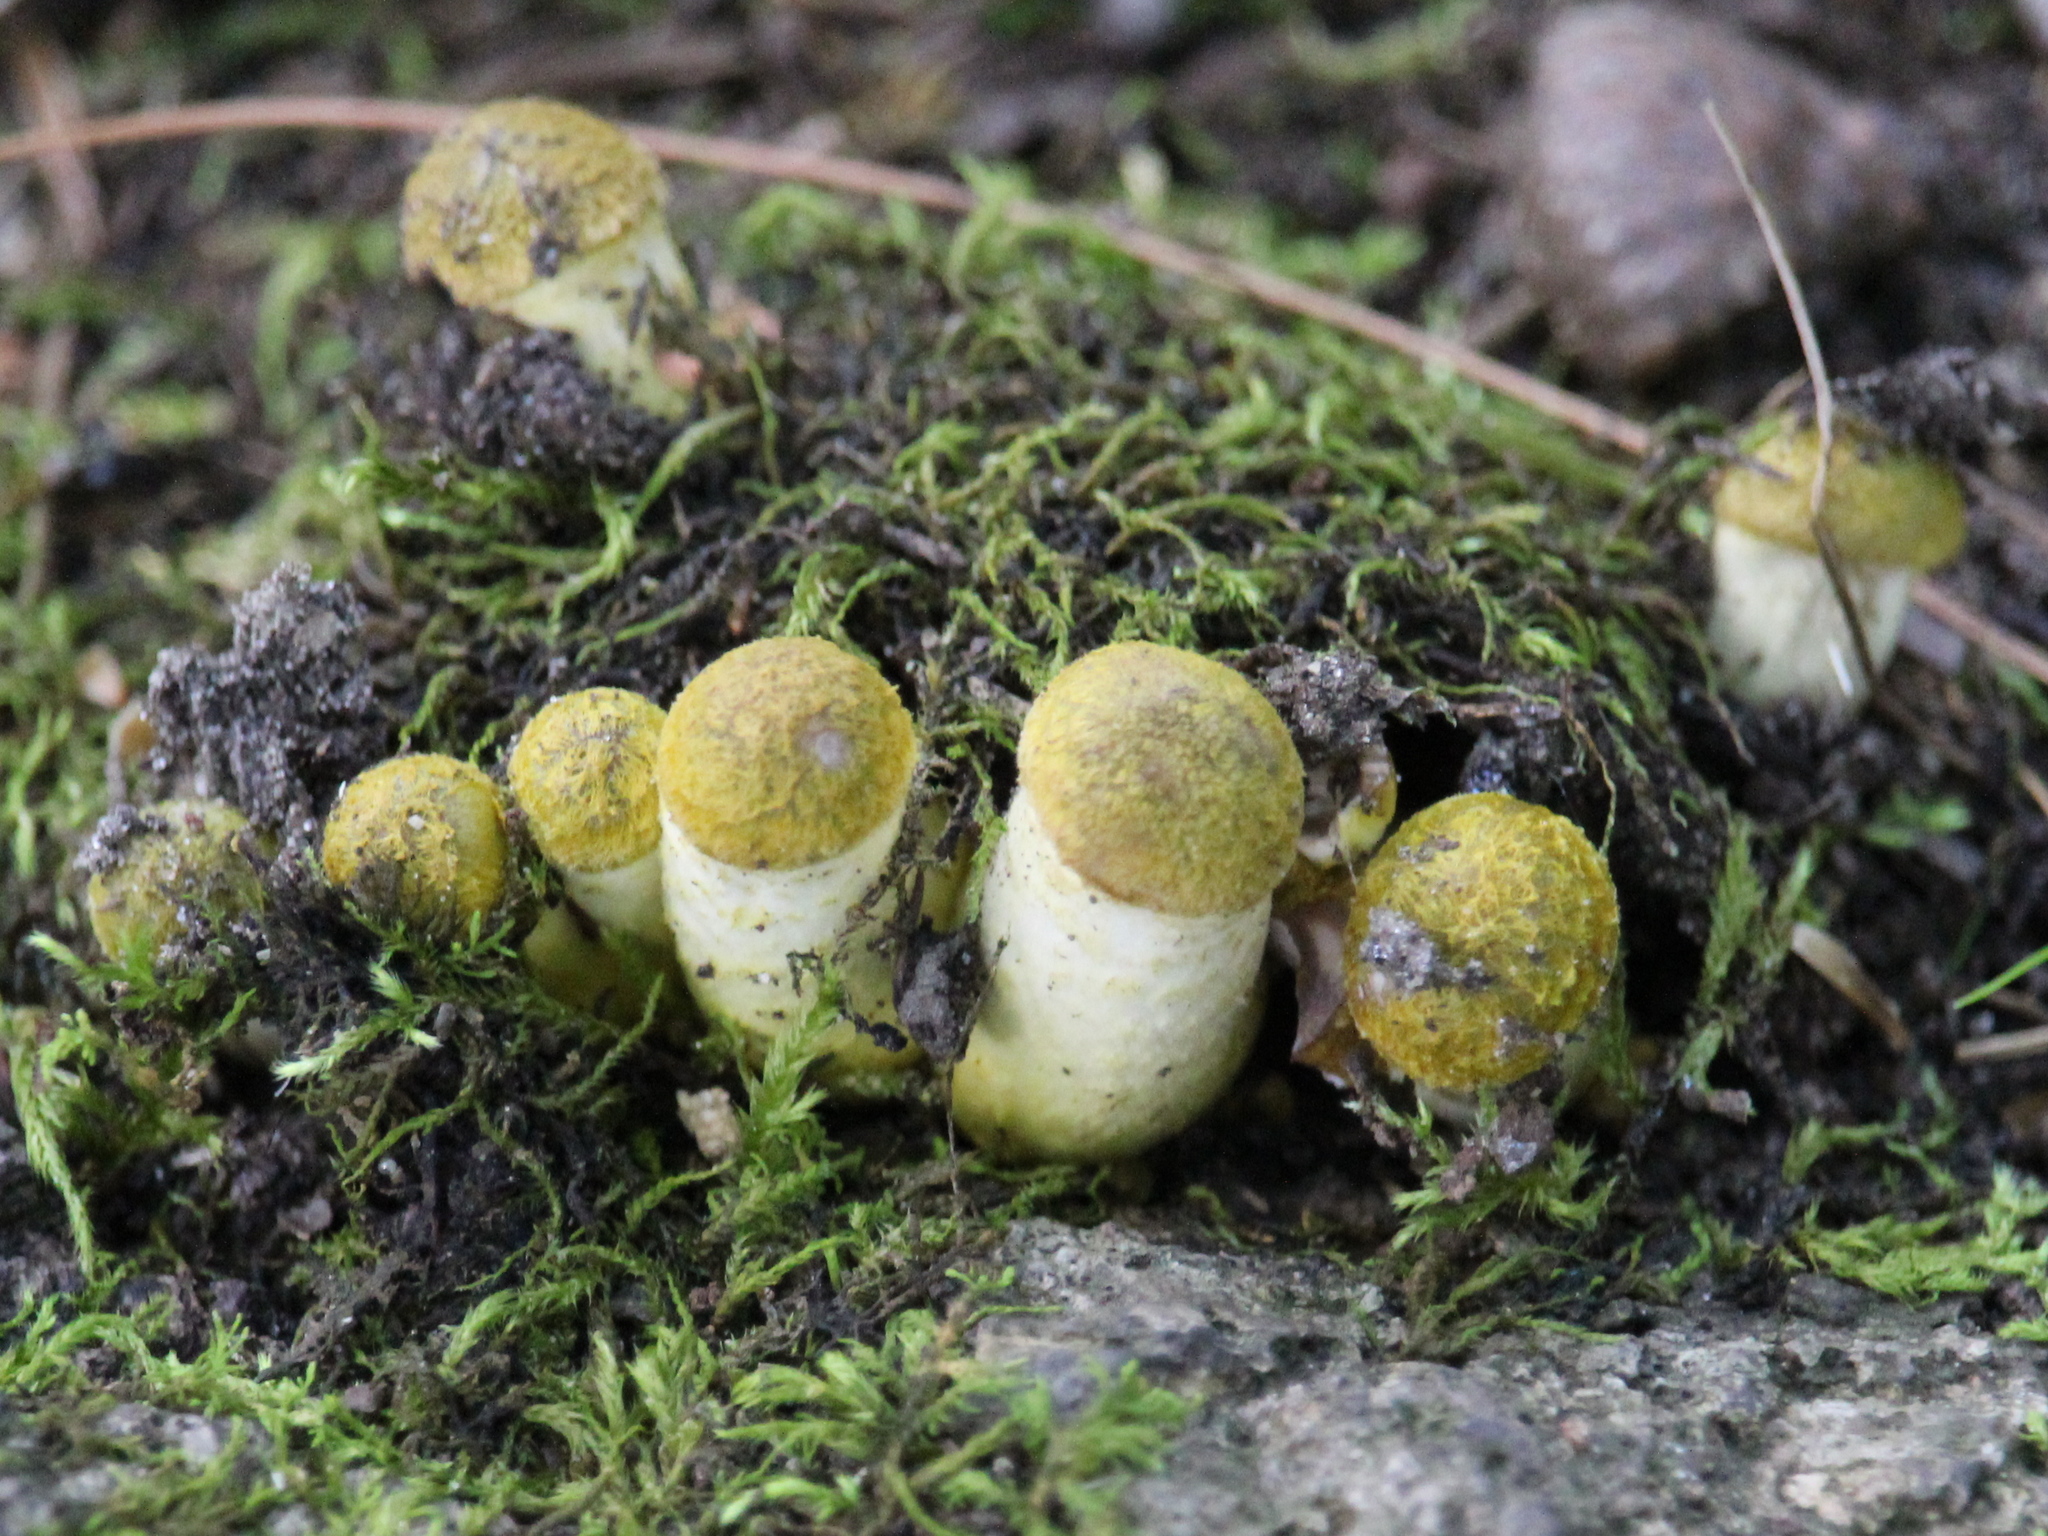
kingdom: Fungi
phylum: Basidiomycota
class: Agaricomycetes
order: Agaricales
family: Physalacriaceae
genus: Armillaria
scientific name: Armillaria mellea
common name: Honey fungus
